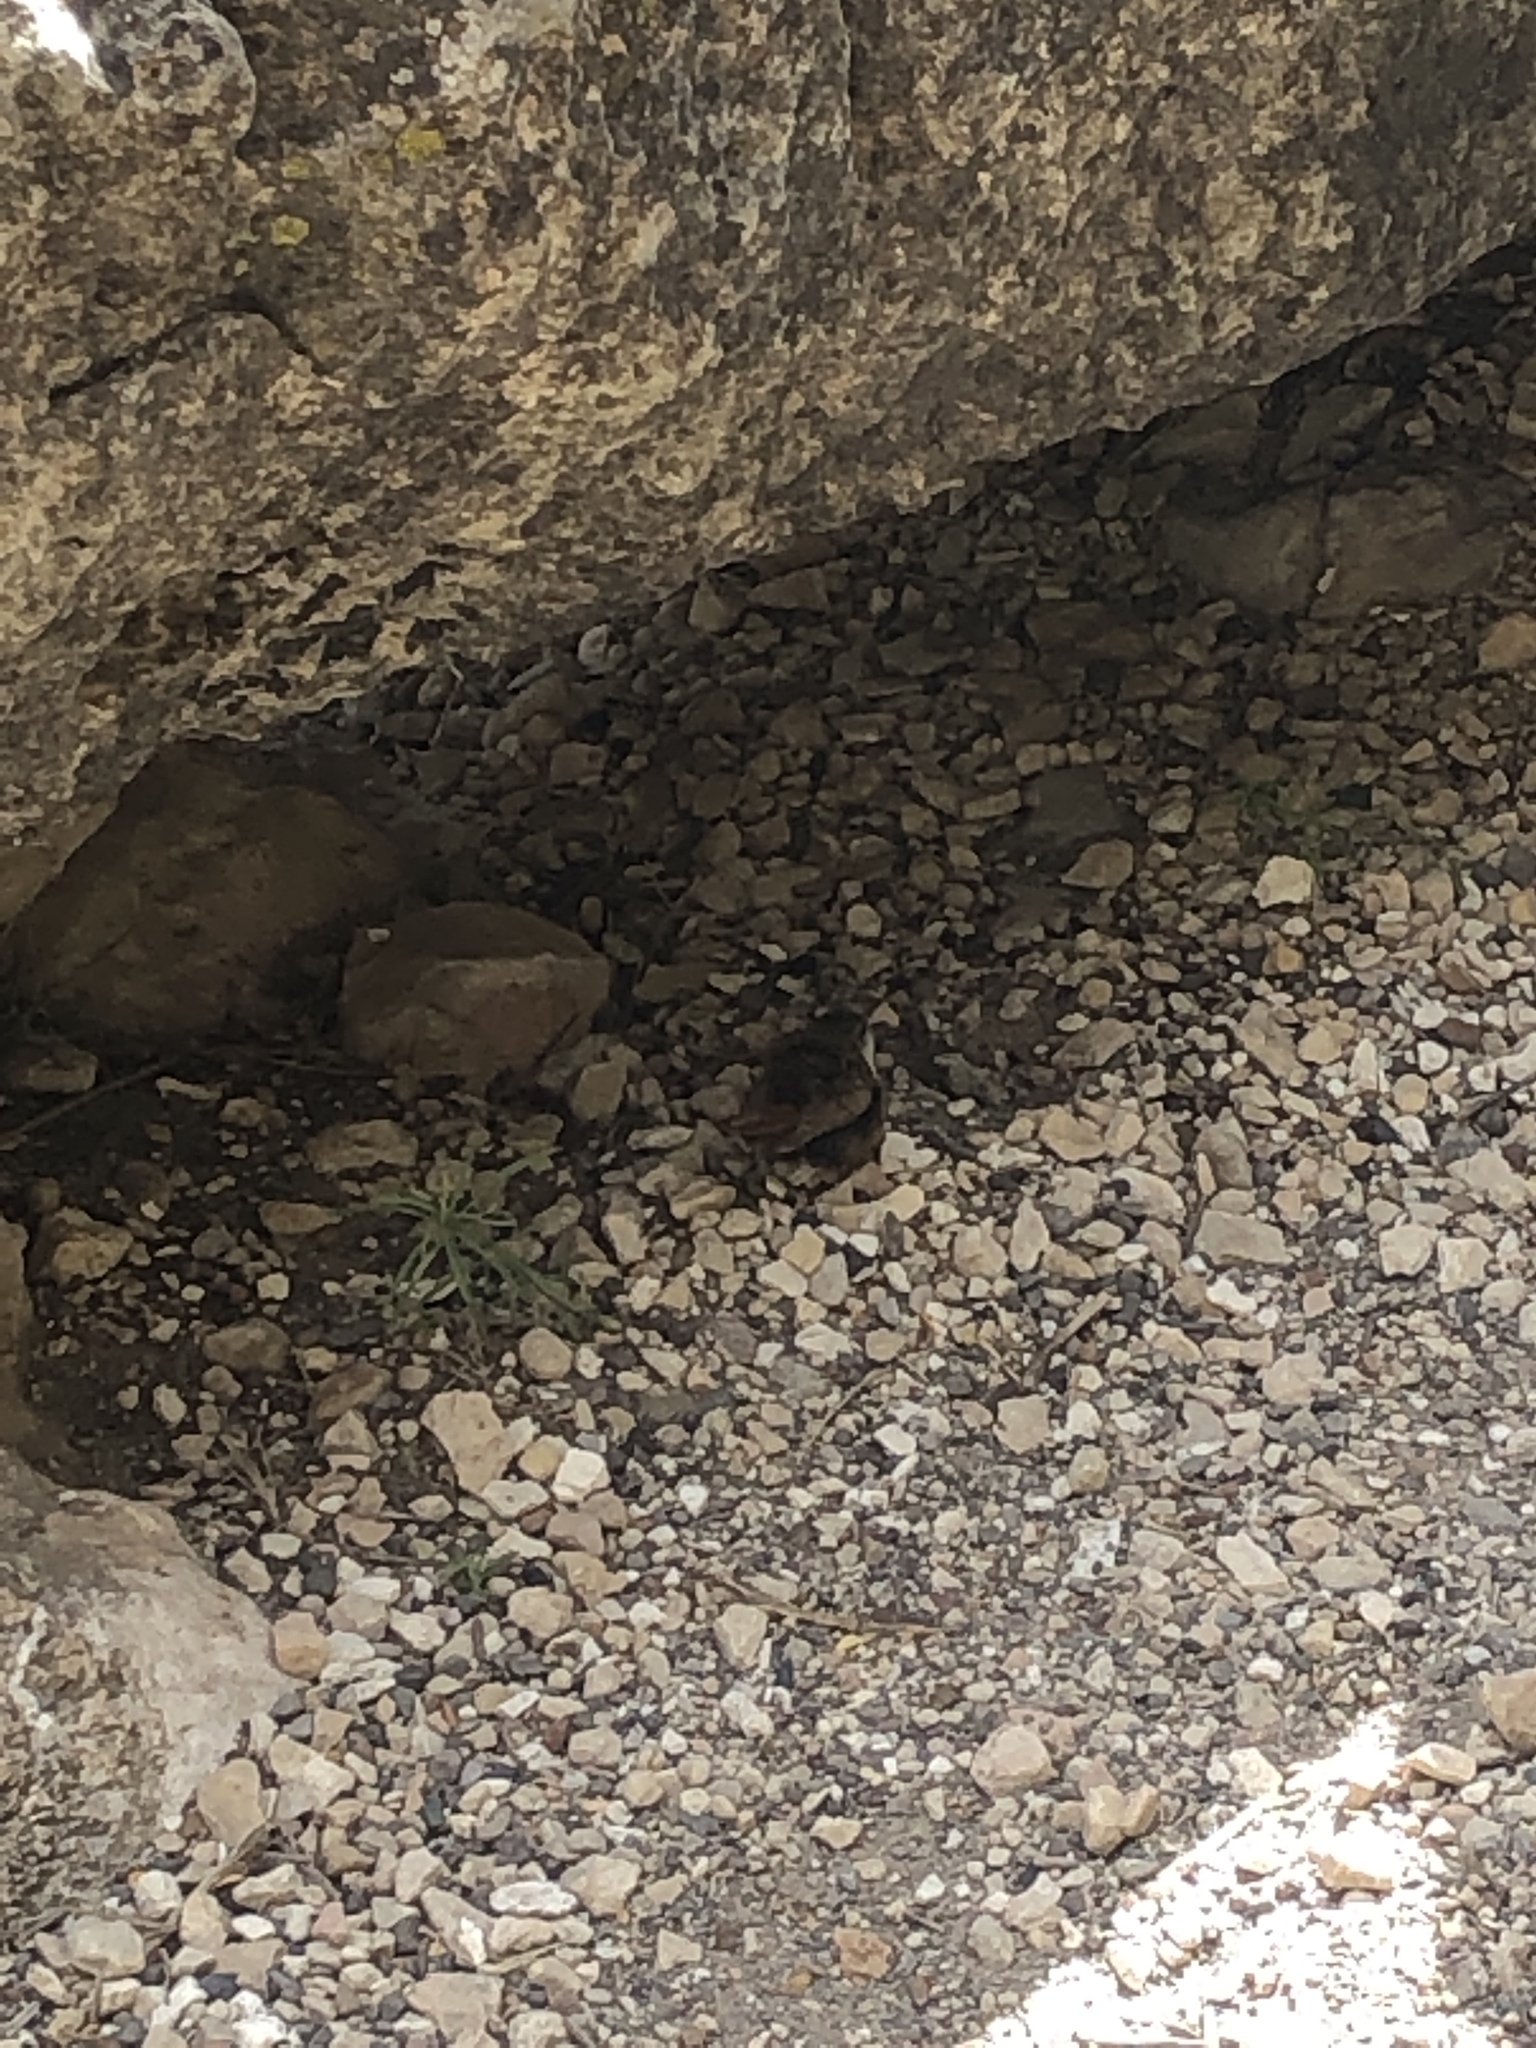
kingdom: Animalia
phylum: Chordata
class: Aves
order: Passeriformes
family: Troglodytidae
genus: Catherpes
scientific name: Catherpes mexicanus
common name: Canyon wren
